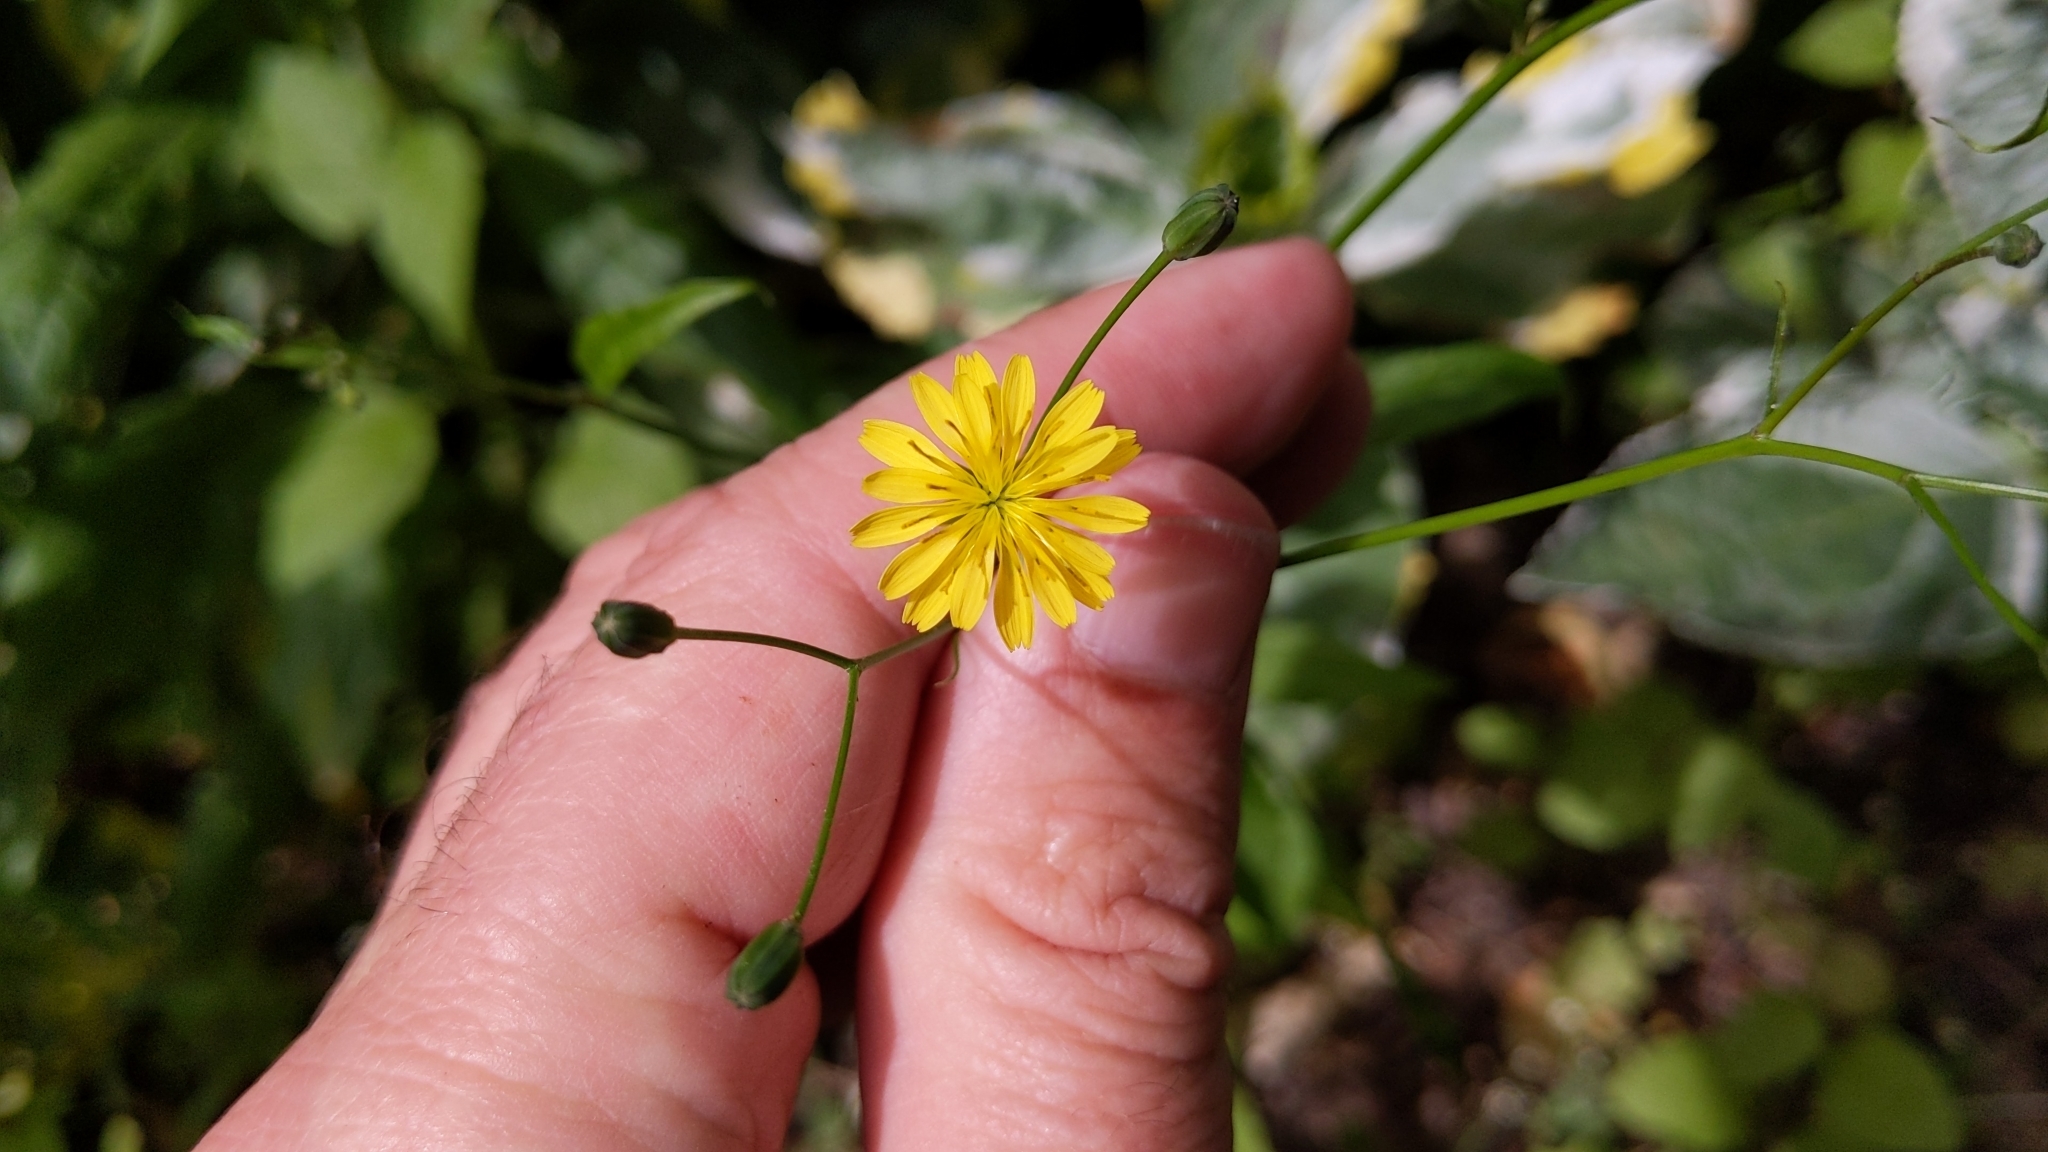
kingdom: Plantae
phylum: Tracheophyta
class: Magnoliopsida
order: Asterales
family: Asteraceae
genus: Lapsana
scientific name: Lapsana communis
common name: Nipplewort
